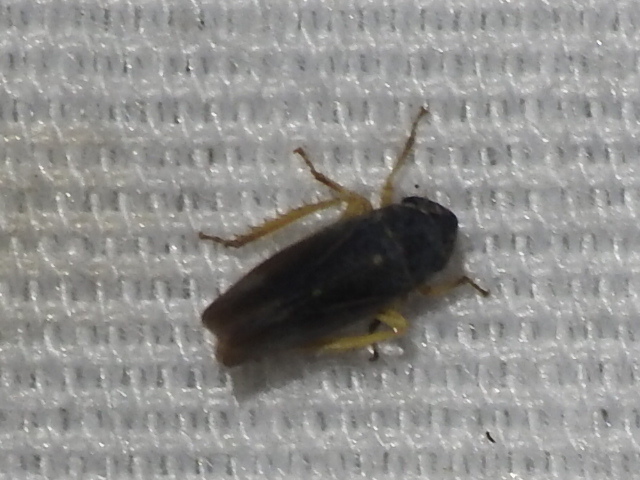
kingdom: Animalia
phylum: Arthropoda
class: Insecta
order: Hemiptera
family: Cicadellidae
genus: Ciminius
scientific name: Ciminius hartii
